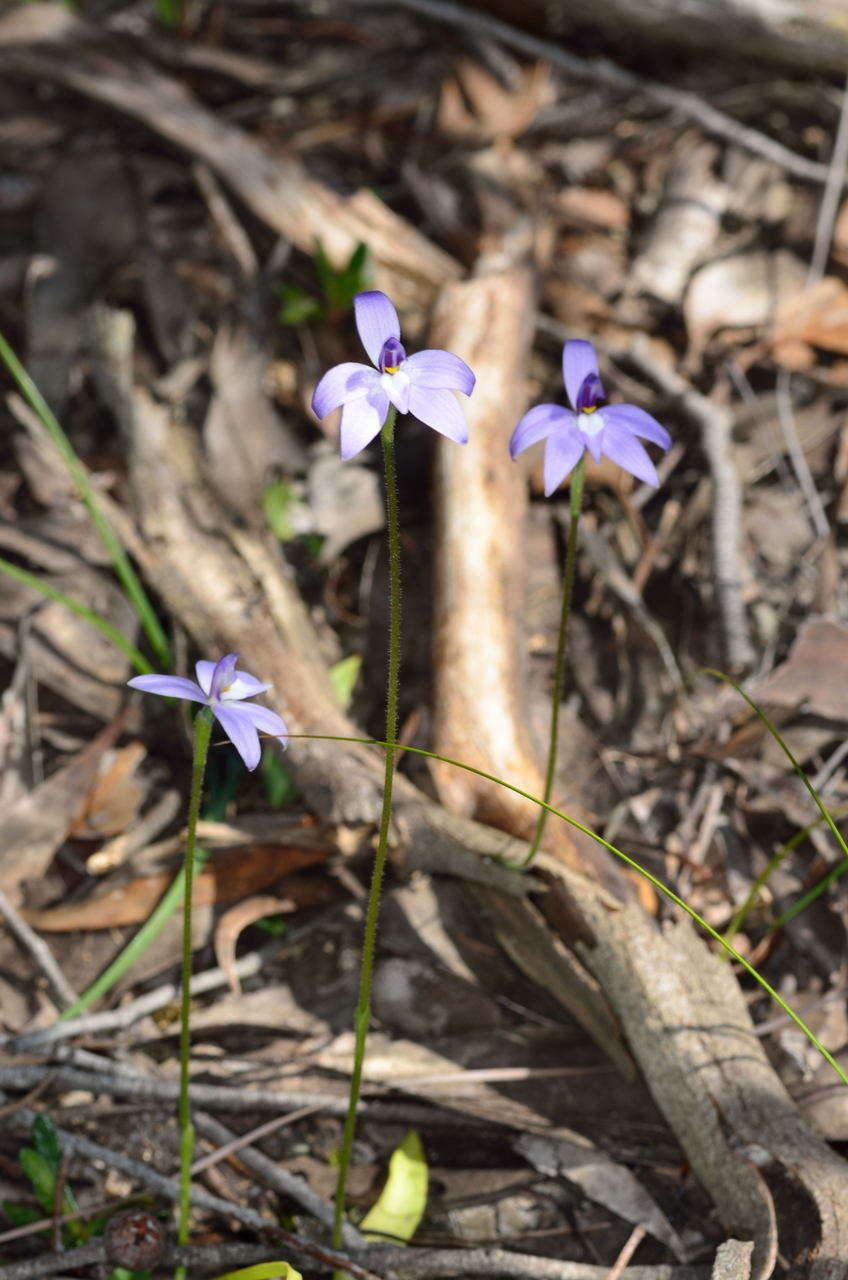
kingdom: Plantae
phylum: Tracheophyta
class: Liliopsida
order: Asparagales
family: Orchidaceae
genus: Caladenia
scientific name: Caladenia major
